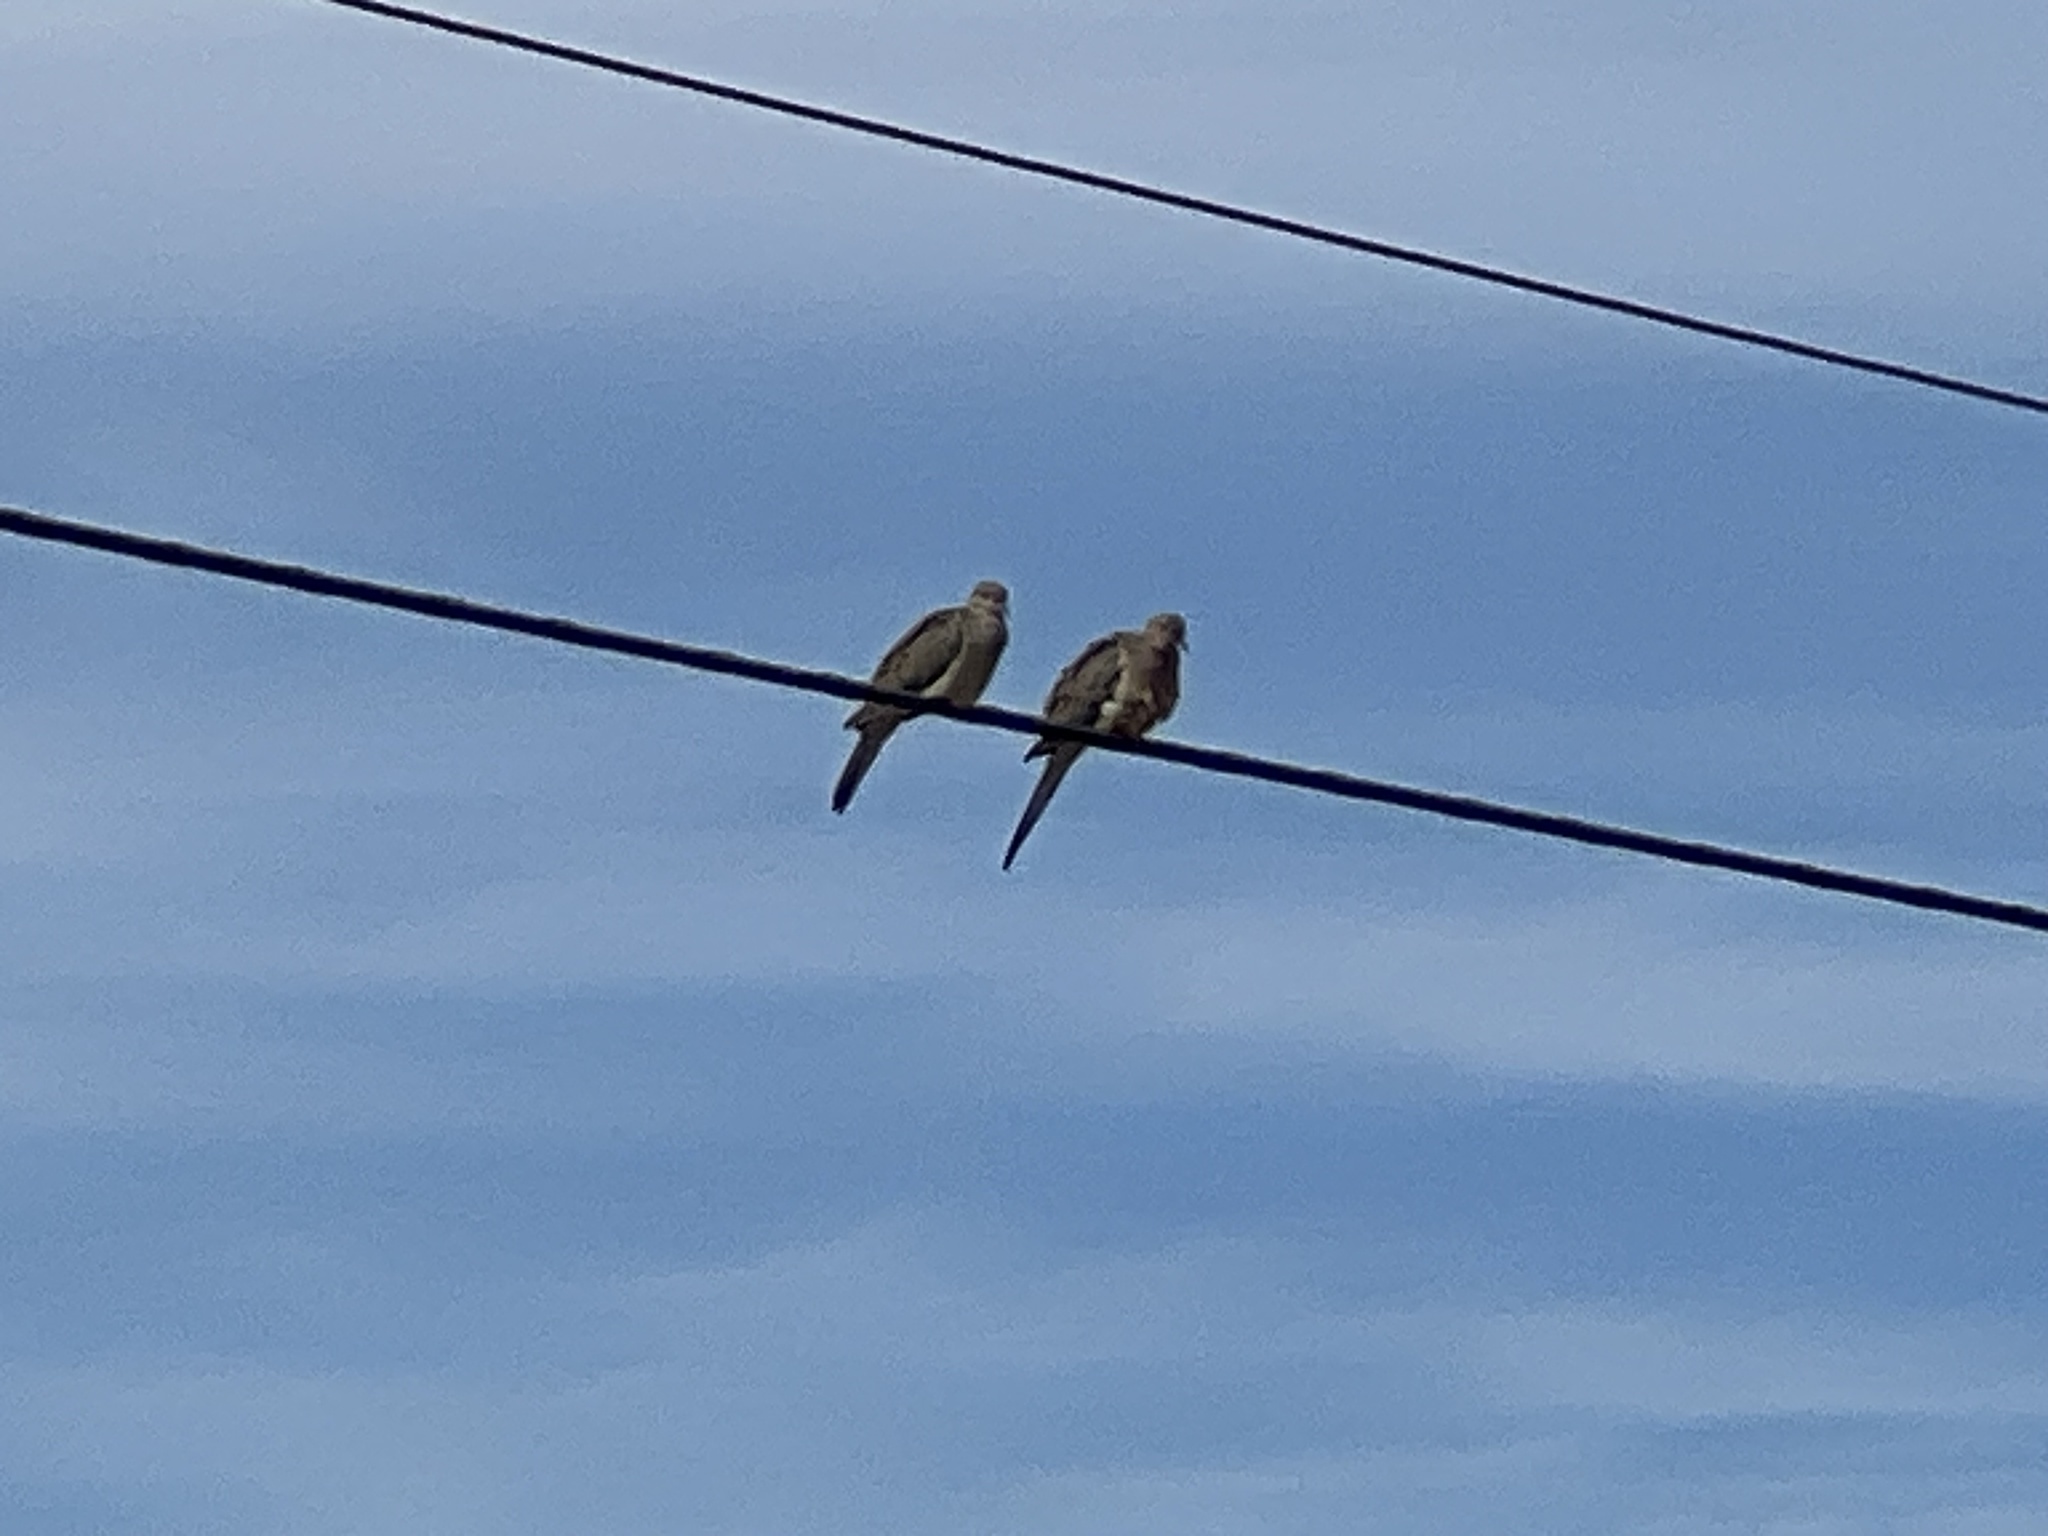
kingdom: Animalia
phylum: Chordata
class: Aves
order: Columbiformes
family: Columbidae
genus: Zenaida
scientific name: Zenaida macroura
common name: Mourning dove
